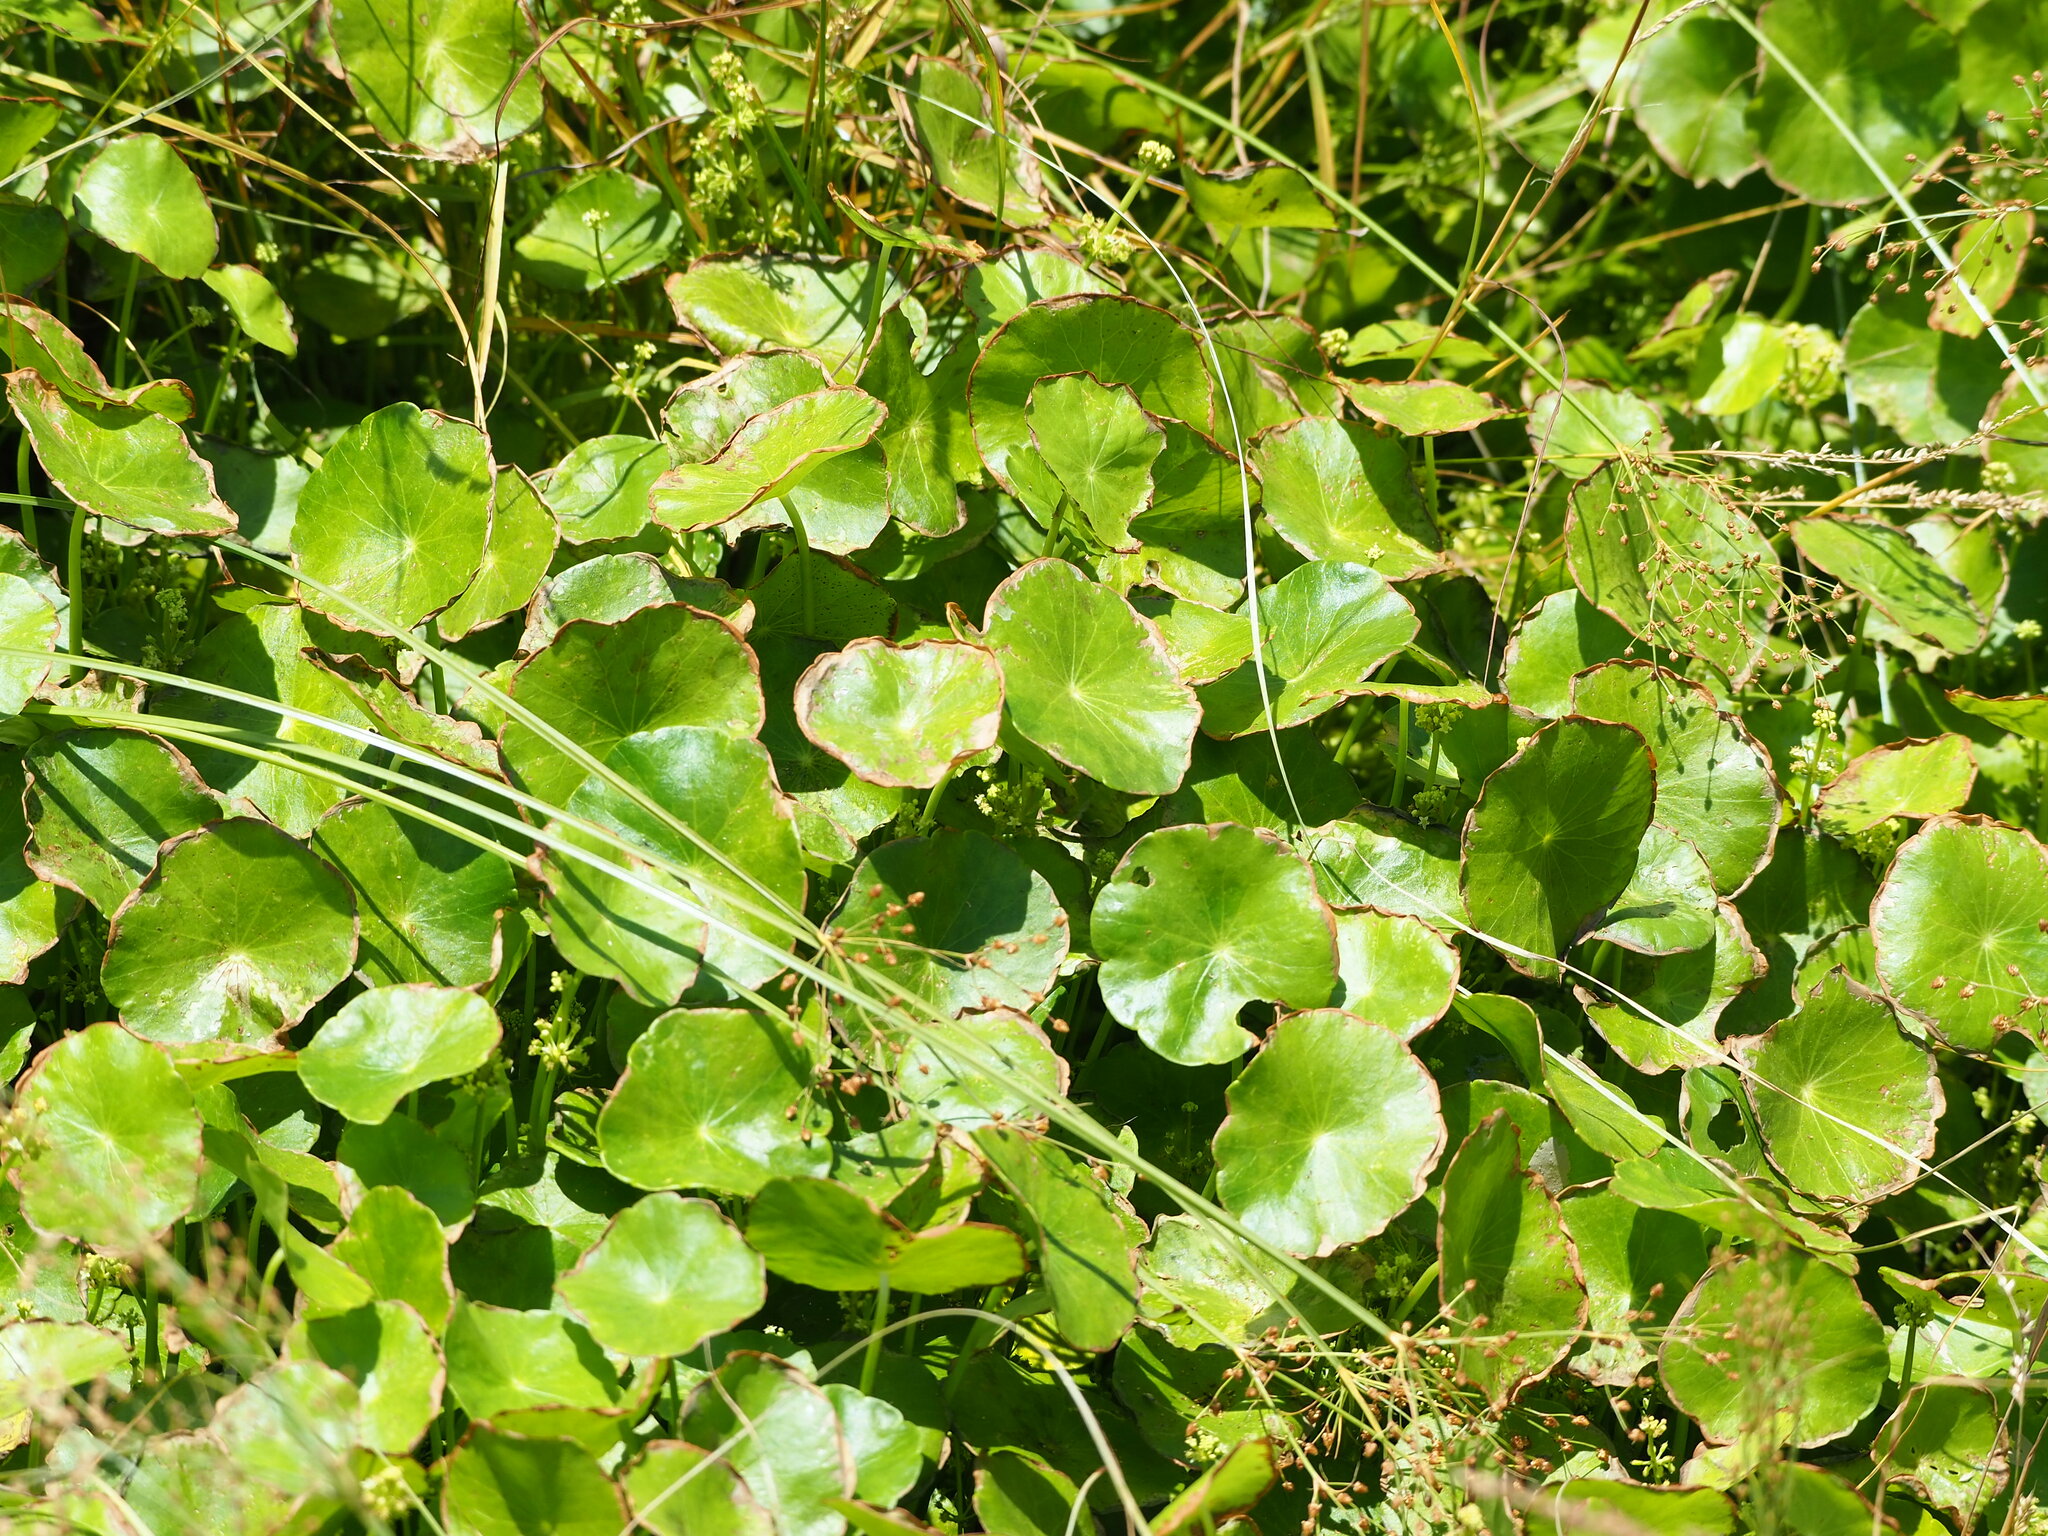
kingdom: Plantae
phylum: Tracheophyta
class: Magnoliopsida
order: Apiales
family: Araliaceae
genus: Hydrocotyle
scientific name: Hydrocotyle verticillata
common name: Whorled marshpennywort
